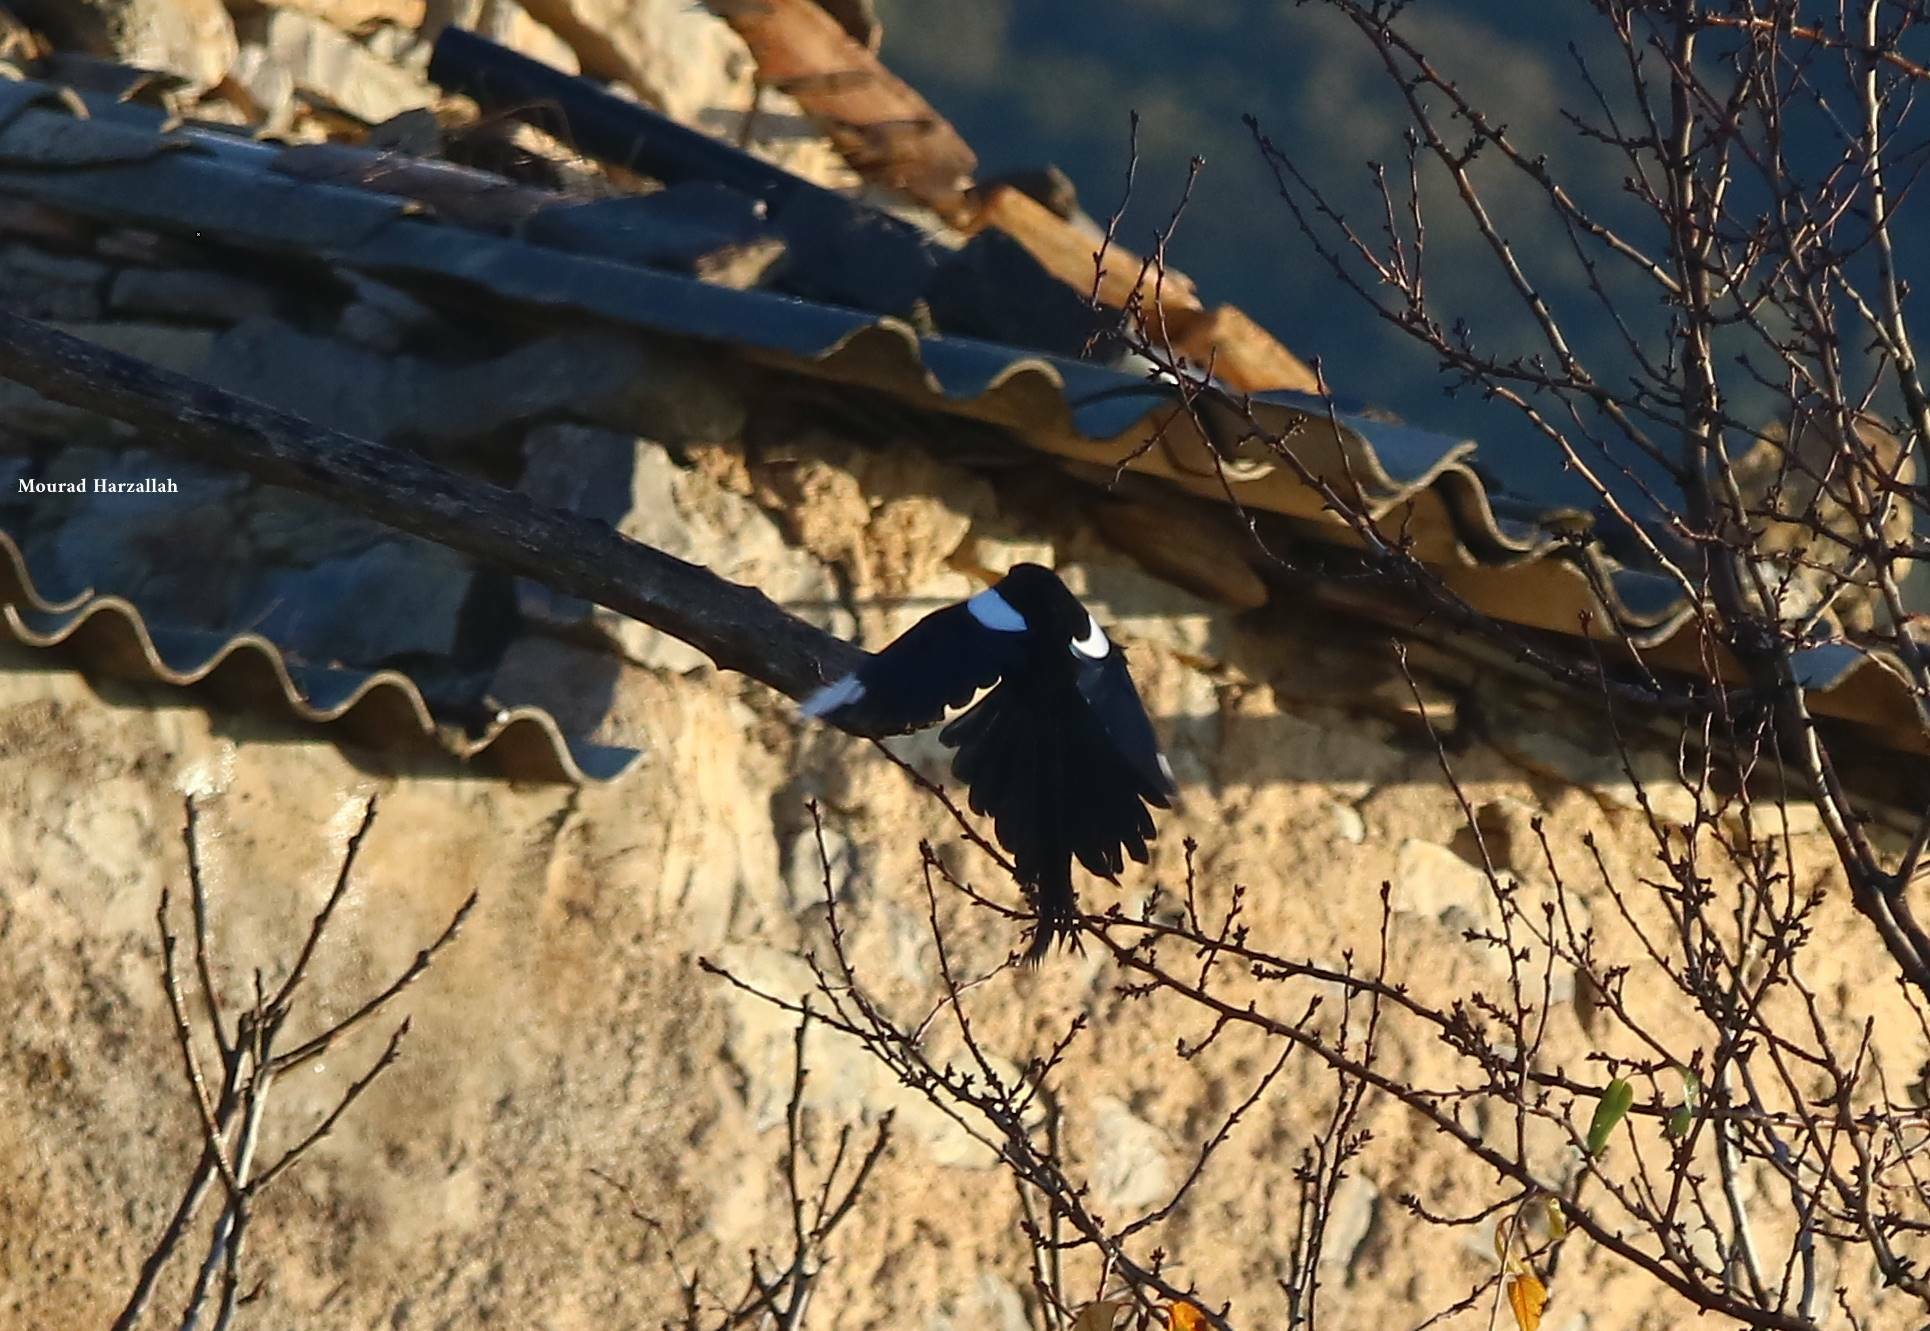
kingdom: Animalia
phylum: Chordata
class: Aves
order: Passeriformes
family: Corvidae
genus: Pica
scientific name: Pica mauritanica
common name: Maghreb magpie
